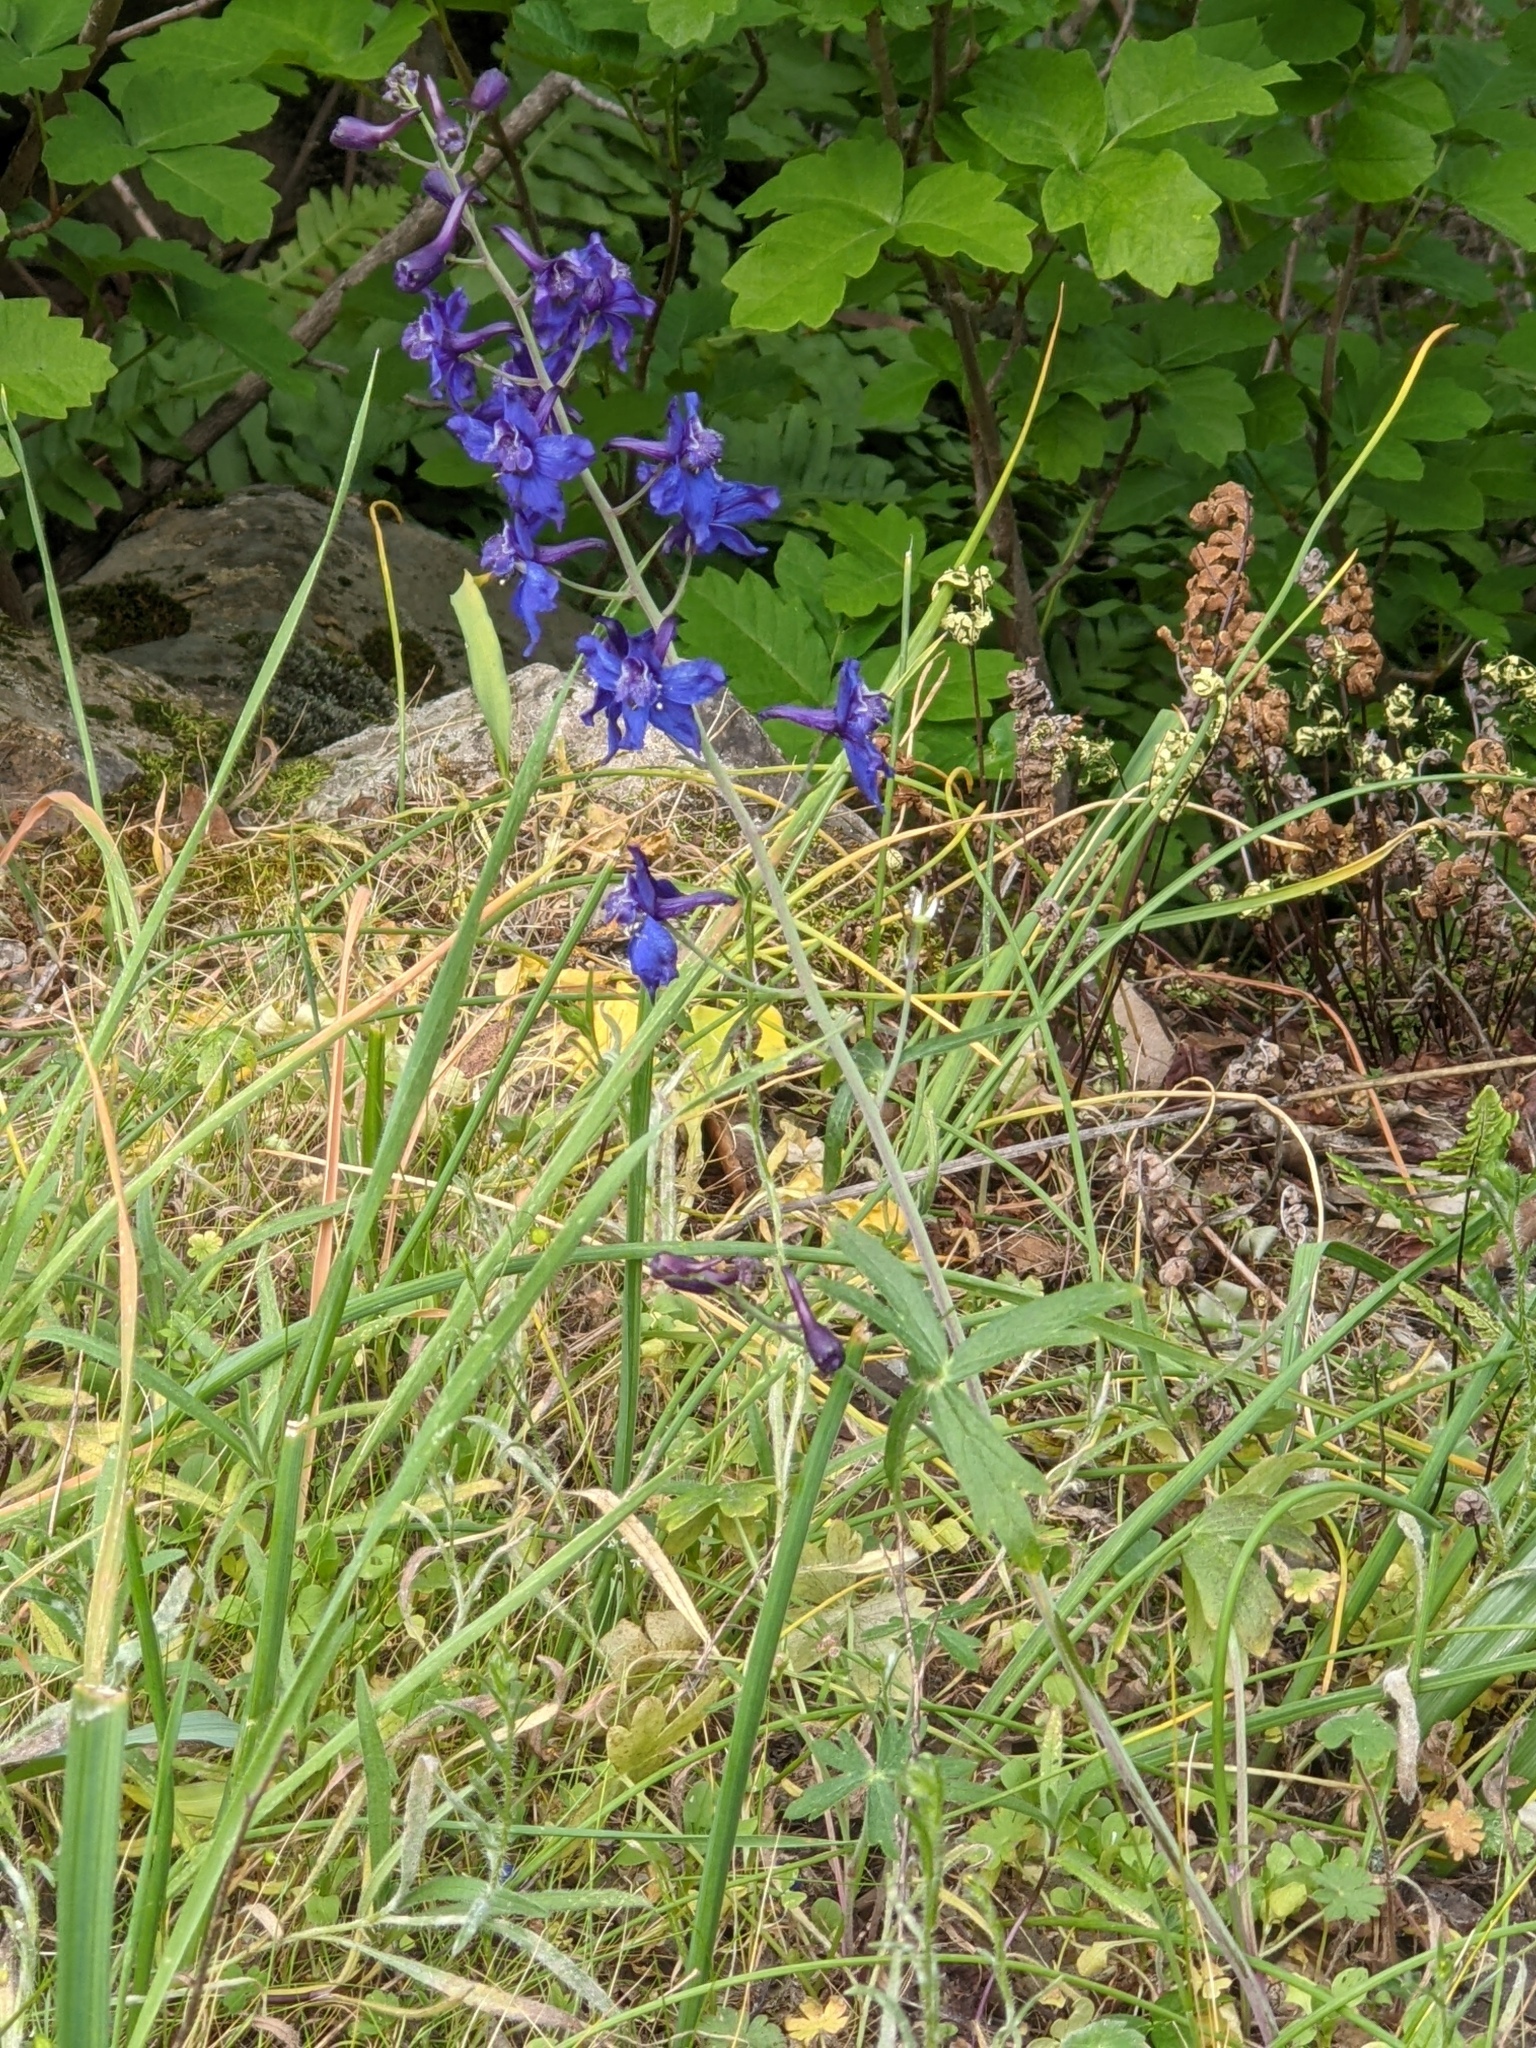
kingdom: Plantae
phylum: Tracheophyta
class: Magnoliopsida
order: Ranunculales
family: Ranunculaceae
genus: Delphinium
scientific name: Delphinium patens
